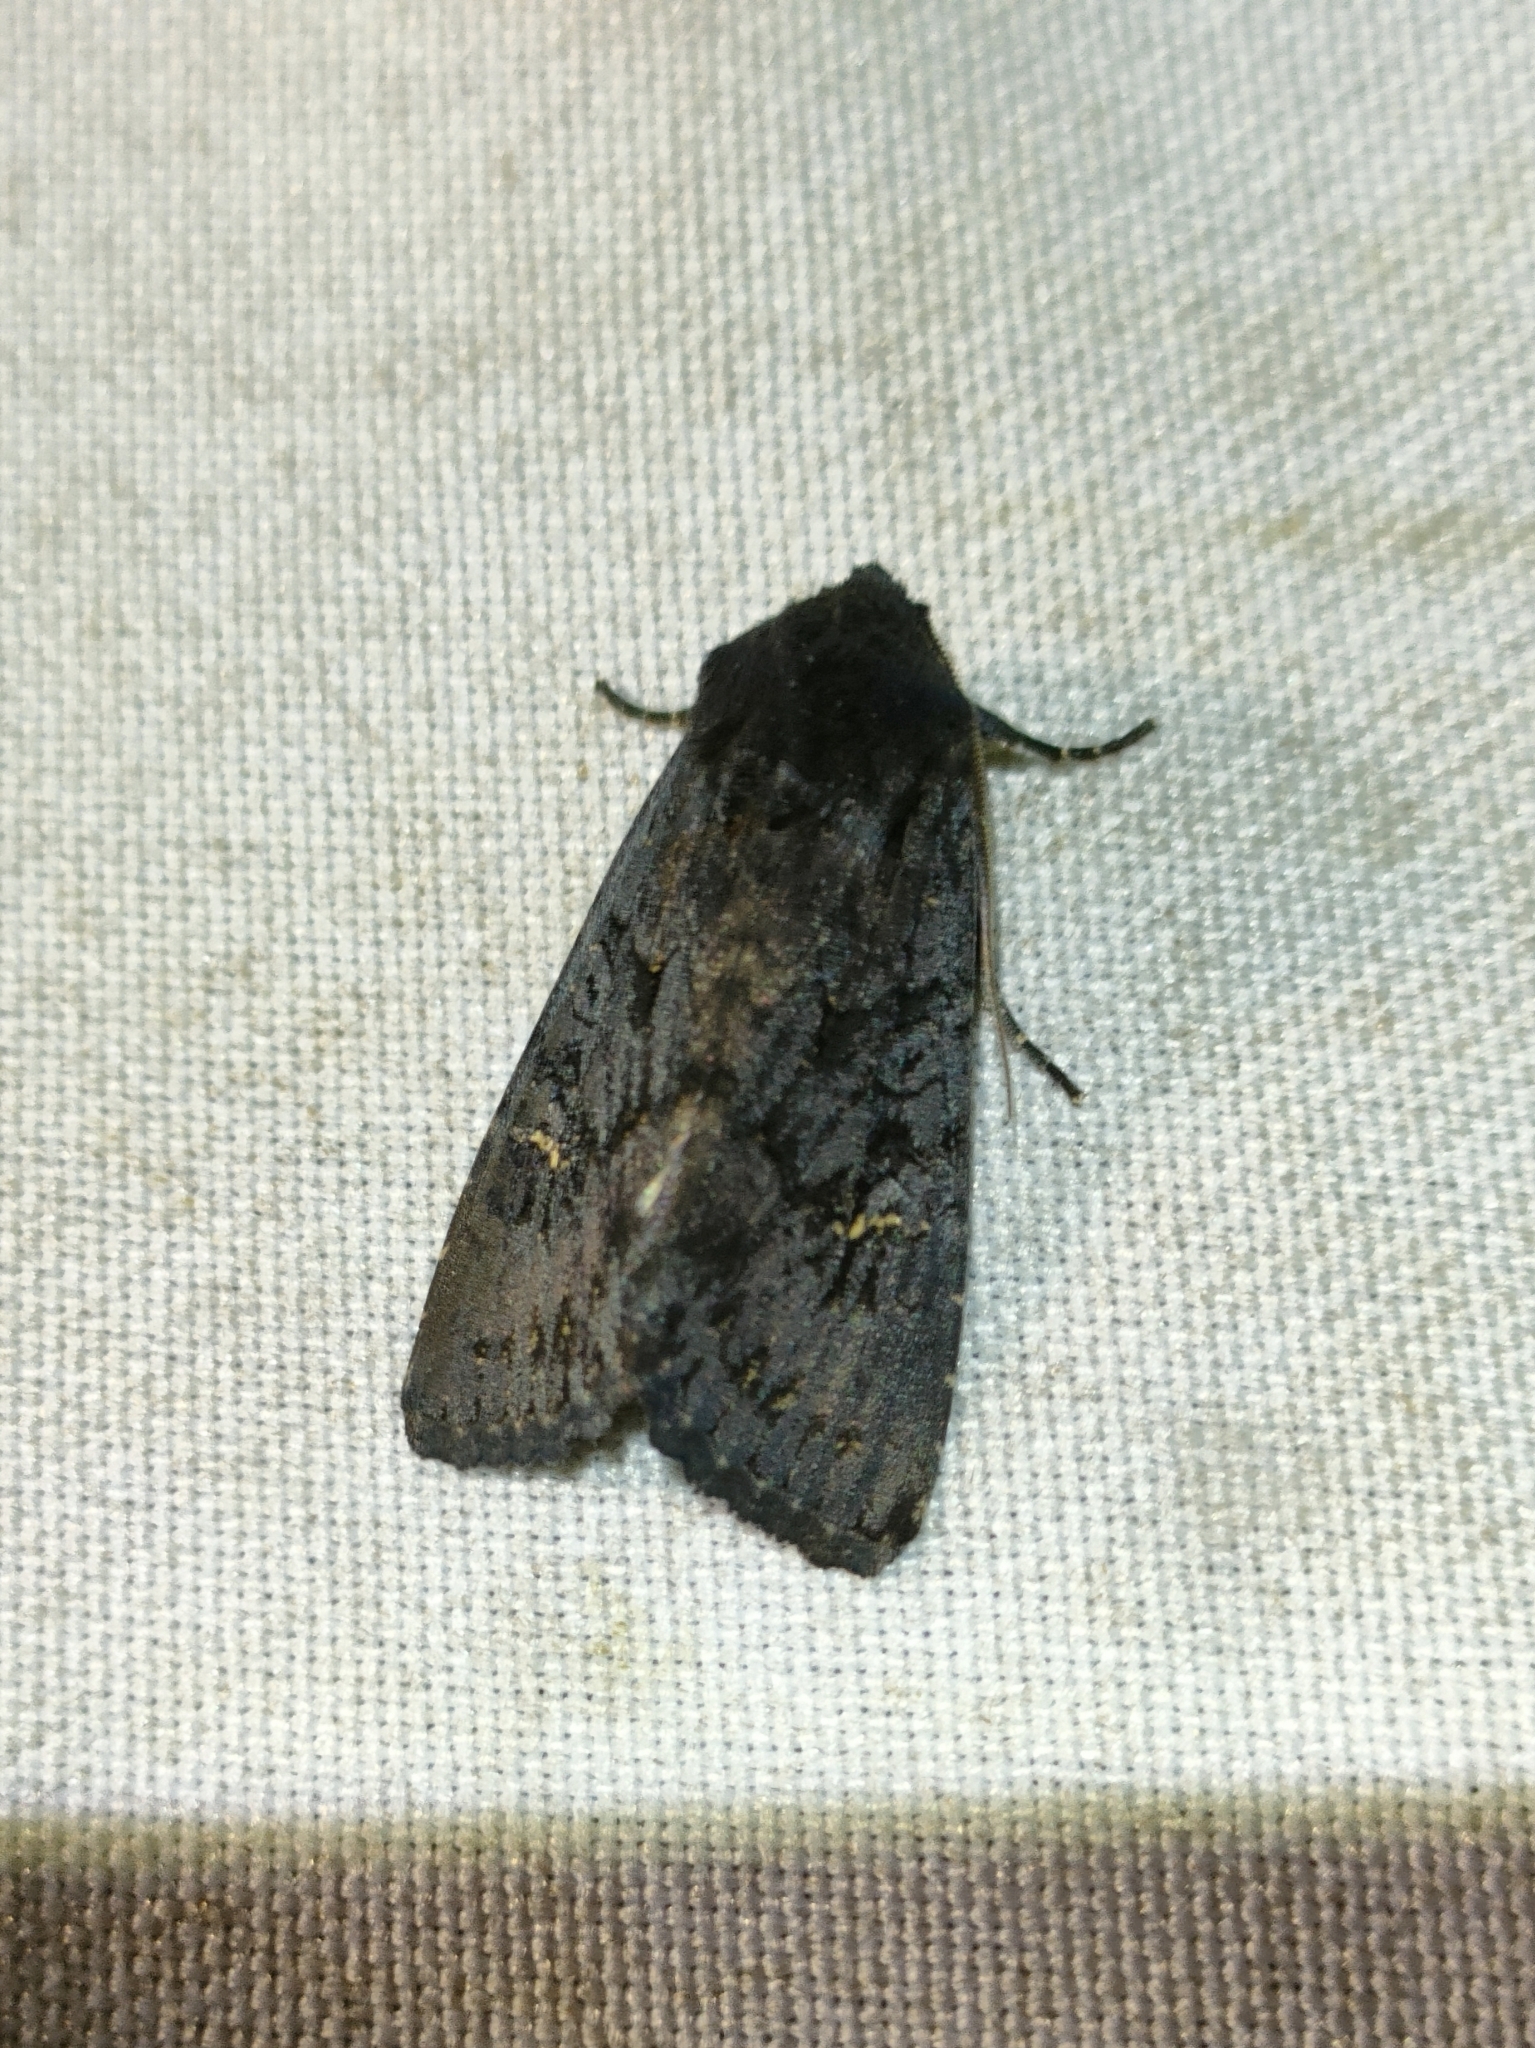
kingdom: Animalia
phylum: Arthropoda
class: Insecta
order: Lepidoptera
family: Noctuidae
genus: Aporophyla
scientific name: Aporophyla nigra
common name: Black rustic
